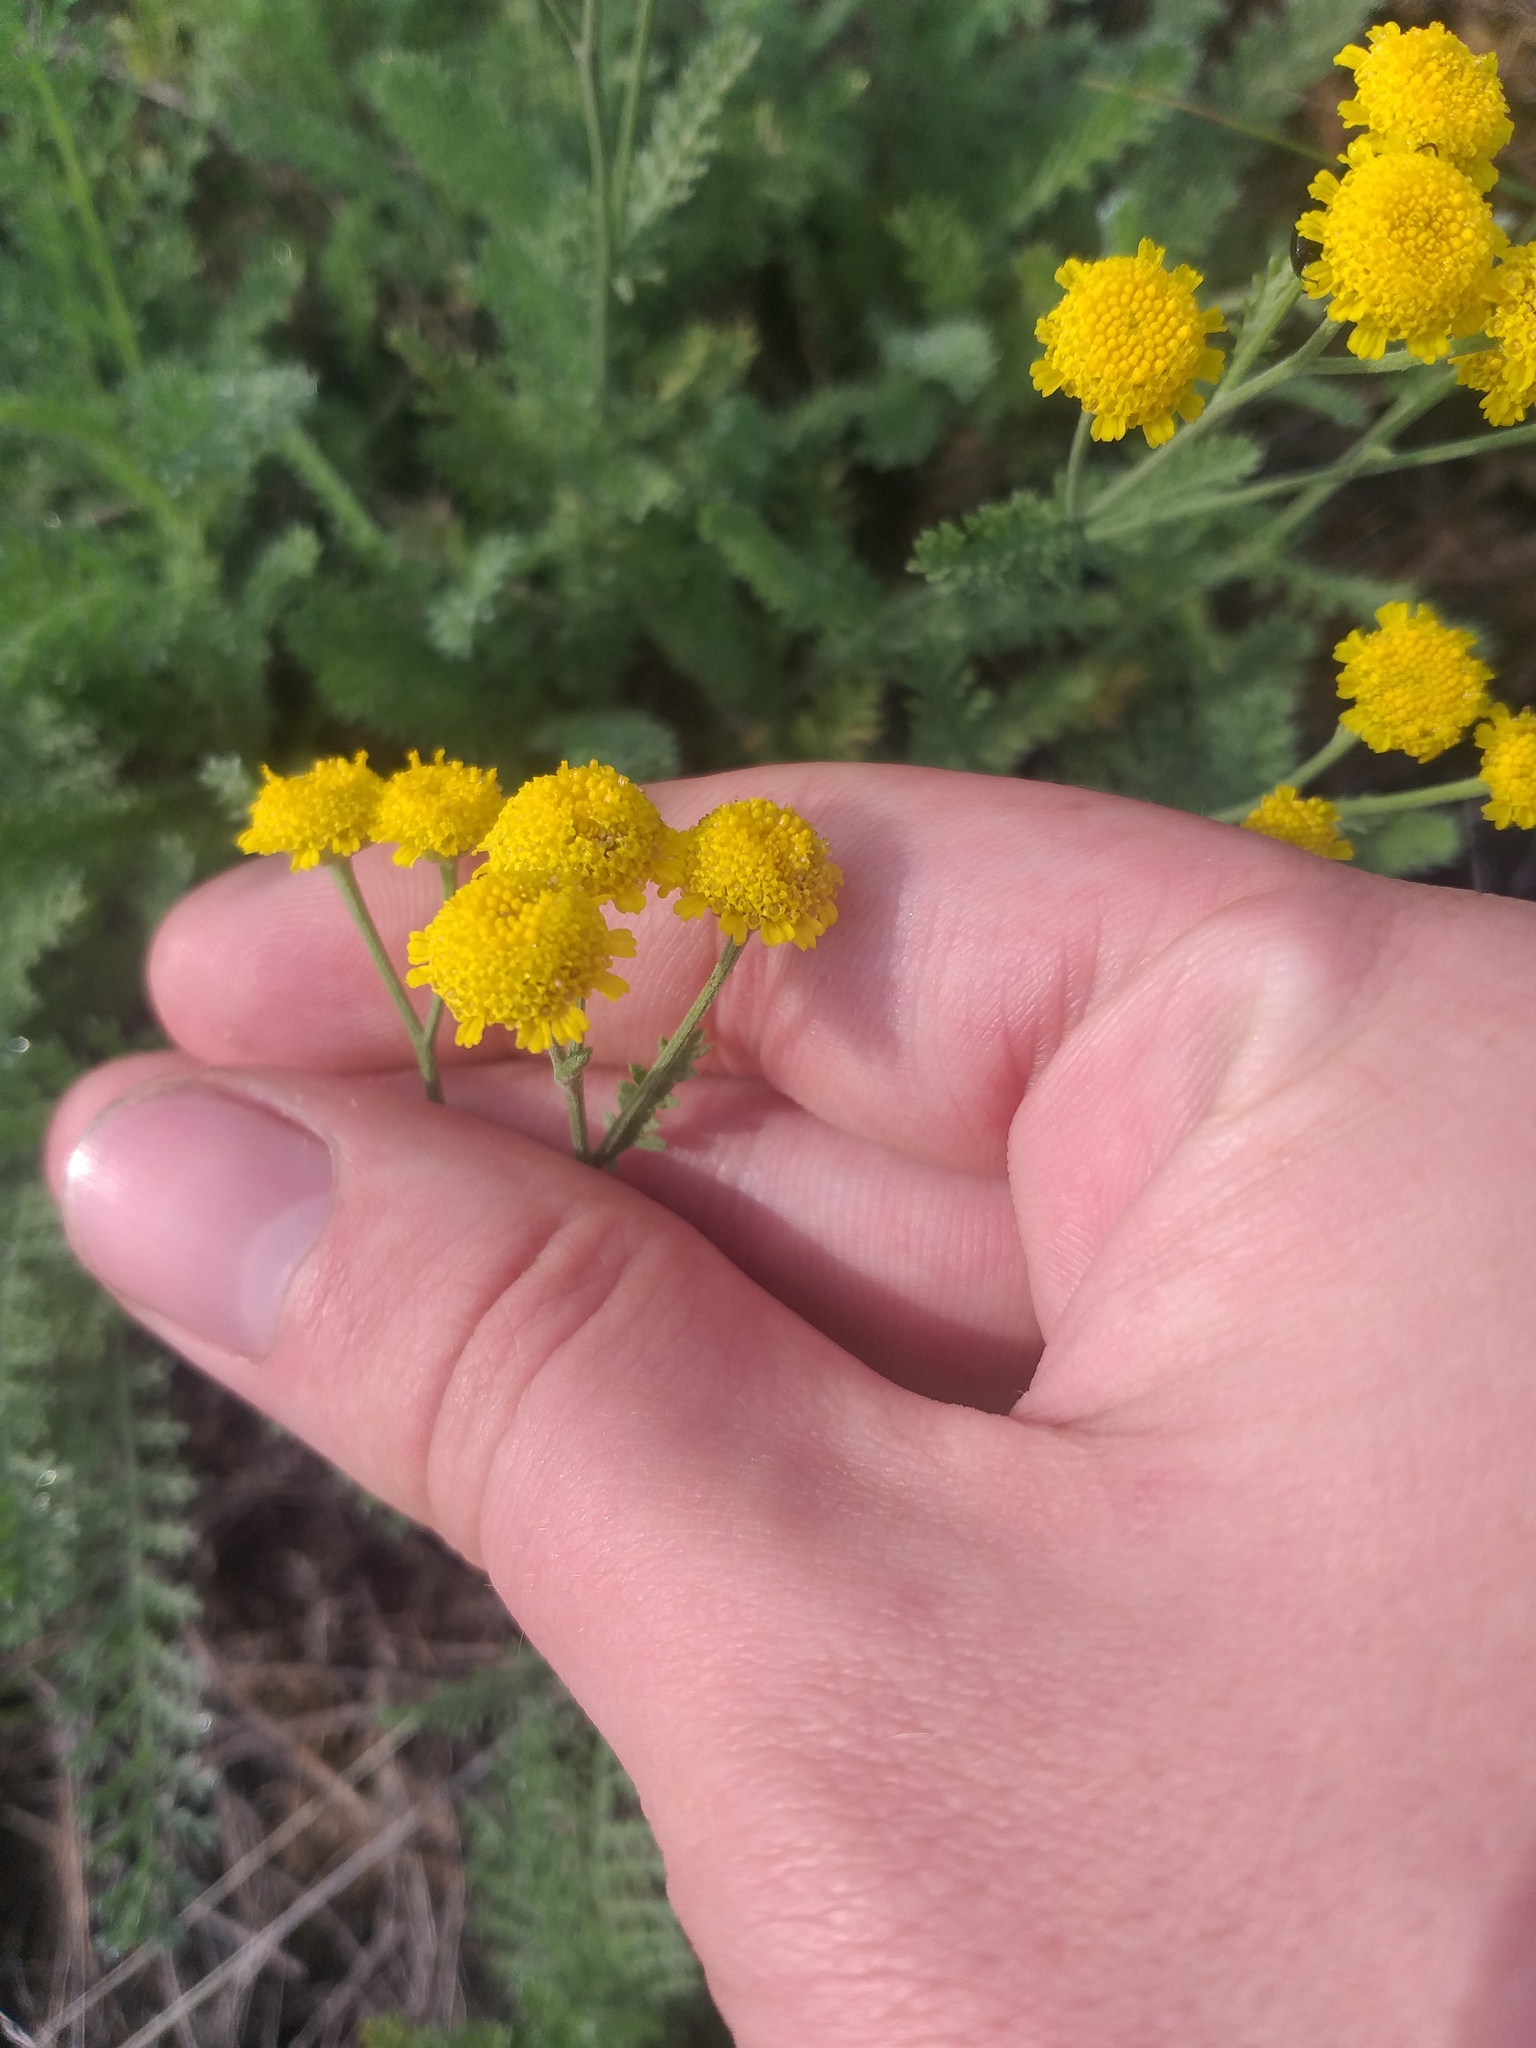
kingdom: Plantae
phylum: Tracheophyta
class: Magnoliopsida
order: Asterales
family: Asteraceae
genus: Tanacetum
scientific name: Tanacetum millefolium
